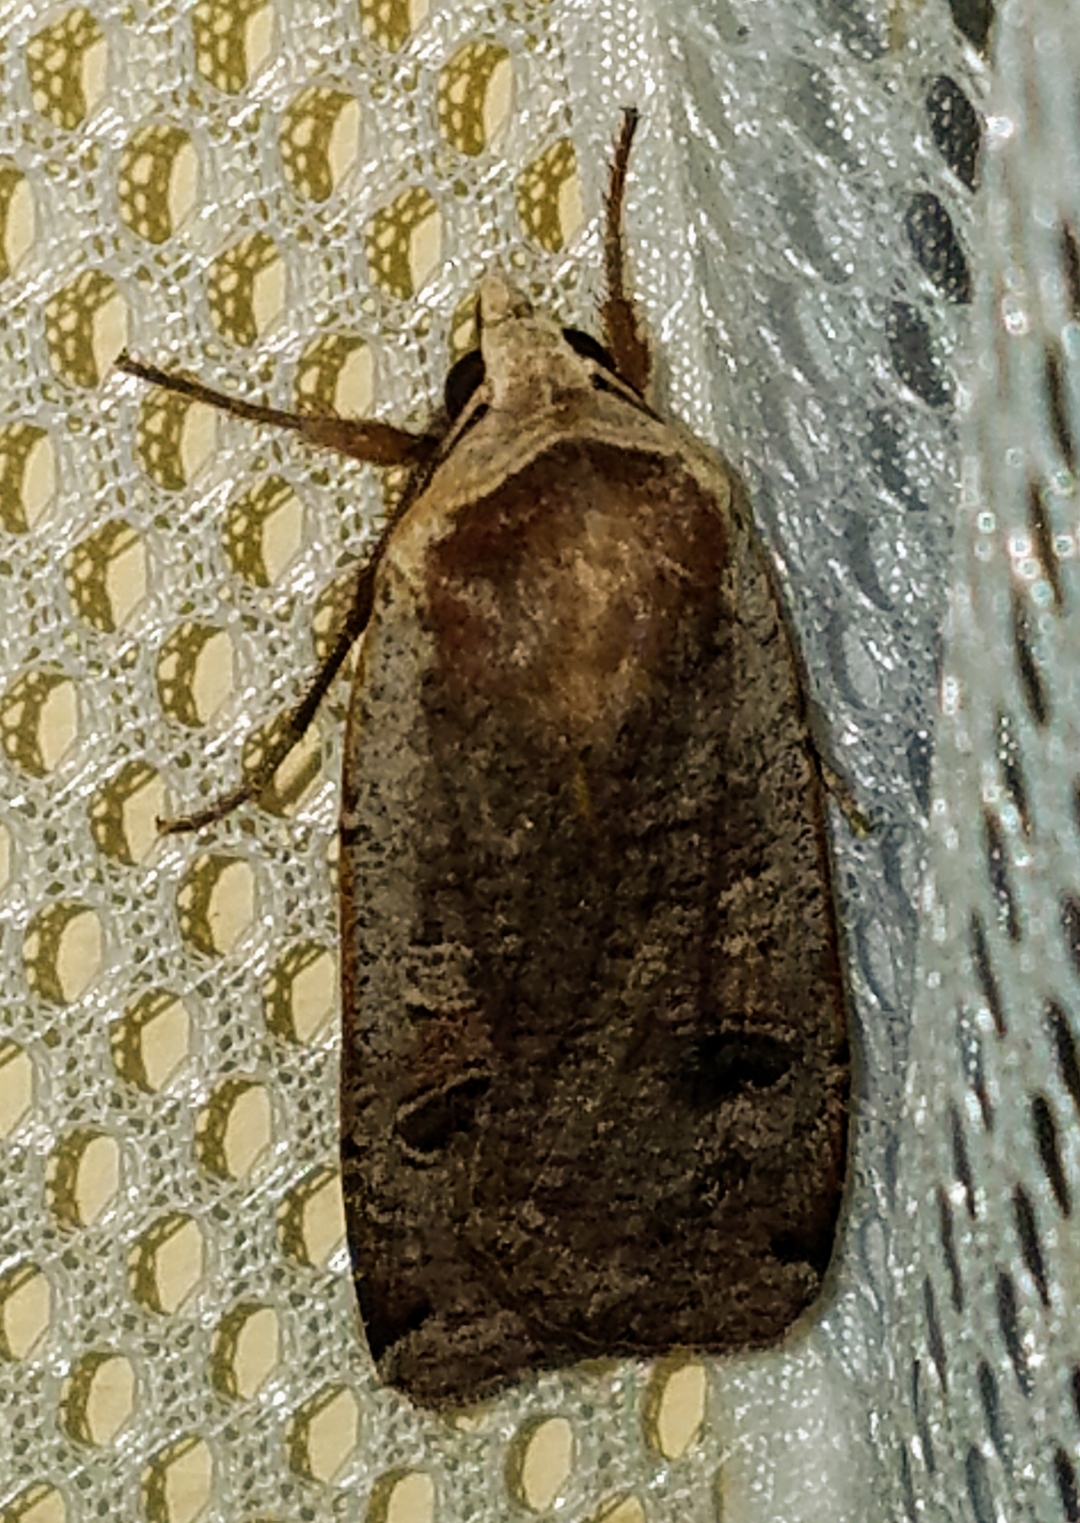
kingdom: Animalia
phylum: Arthropoda
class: Insecta
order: Lepidoptera
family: Noctuidae
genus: Noctua
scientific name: Noctua pronuba
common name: Large yellow underwing
